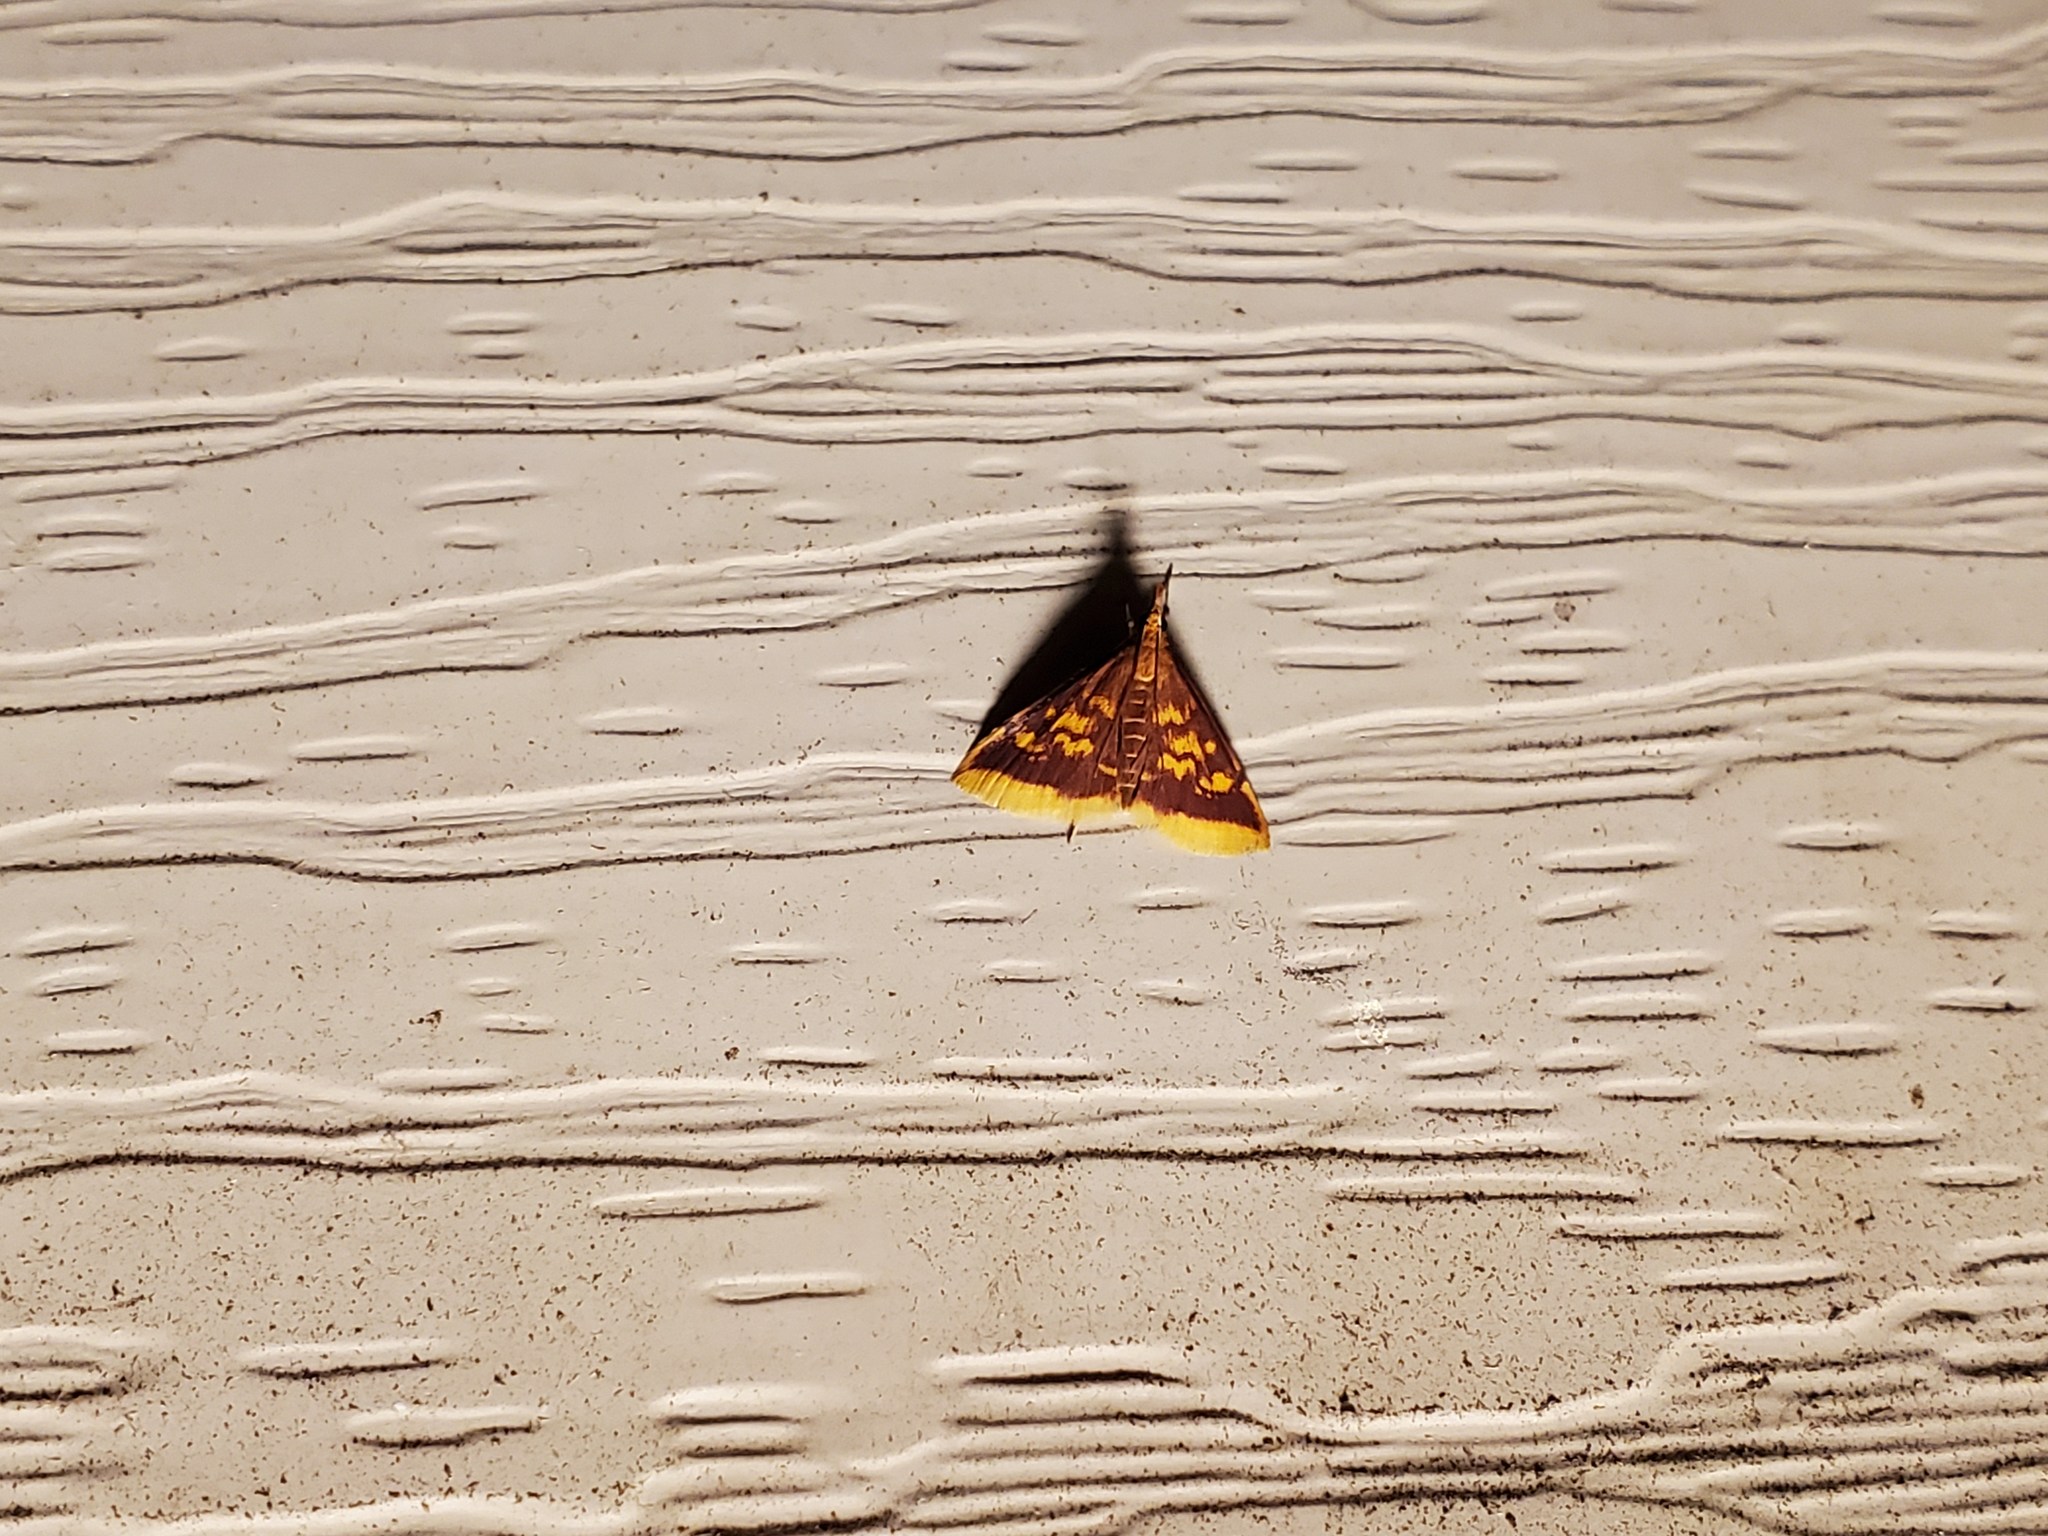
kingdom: Animalia
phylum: Arthropoda
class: Insecta
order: Lepidoptera
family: Crambidae
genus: Pyrausta
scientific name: Pyrausta acrionalis
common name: Mint-loving pyrausta moth
